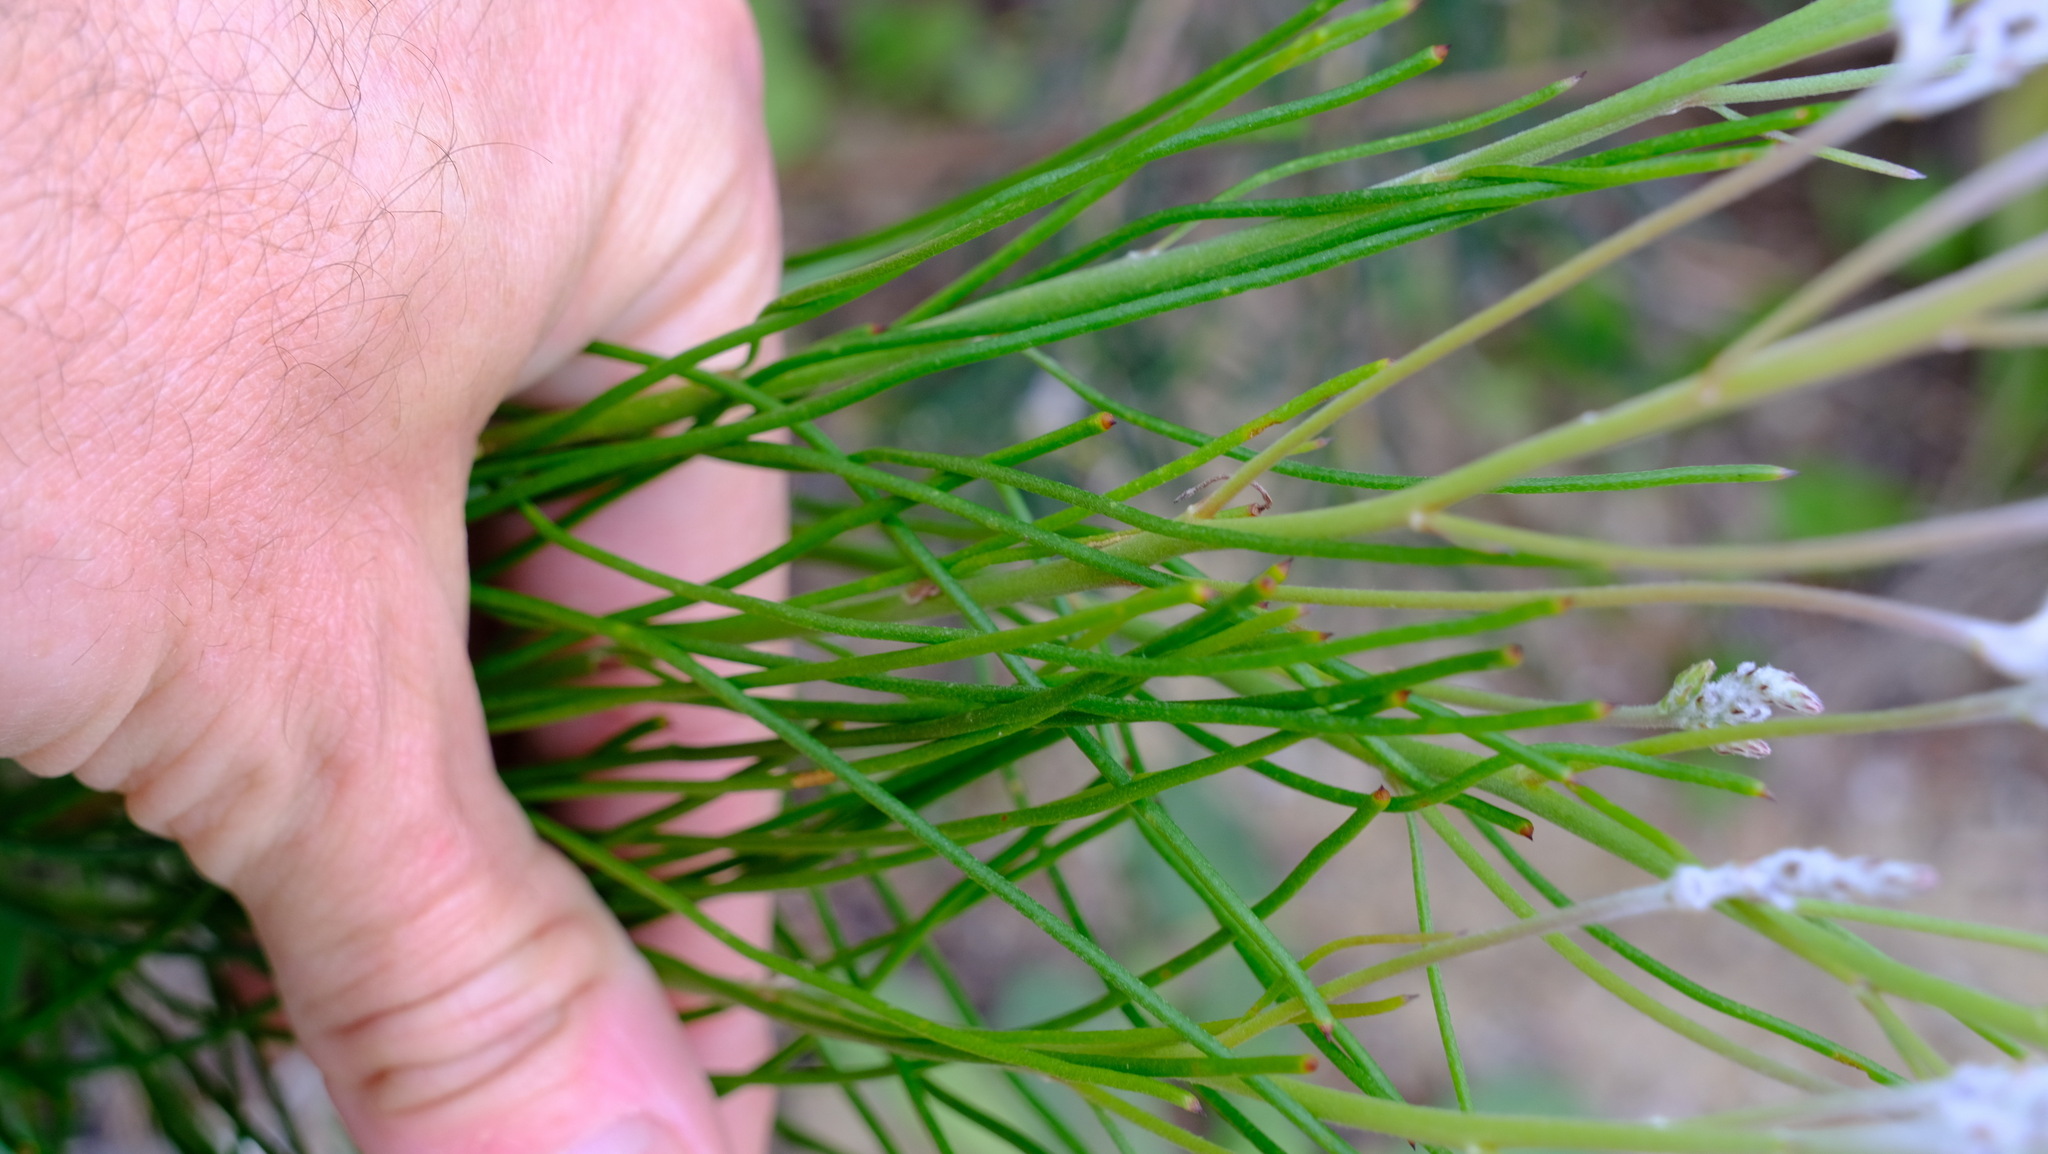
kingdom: Plantae
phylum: Tracheophyta
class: Magnoliopsida
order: Proteales
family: Proteaceae
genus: Conospermum
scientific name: Conospermum stoechadis
